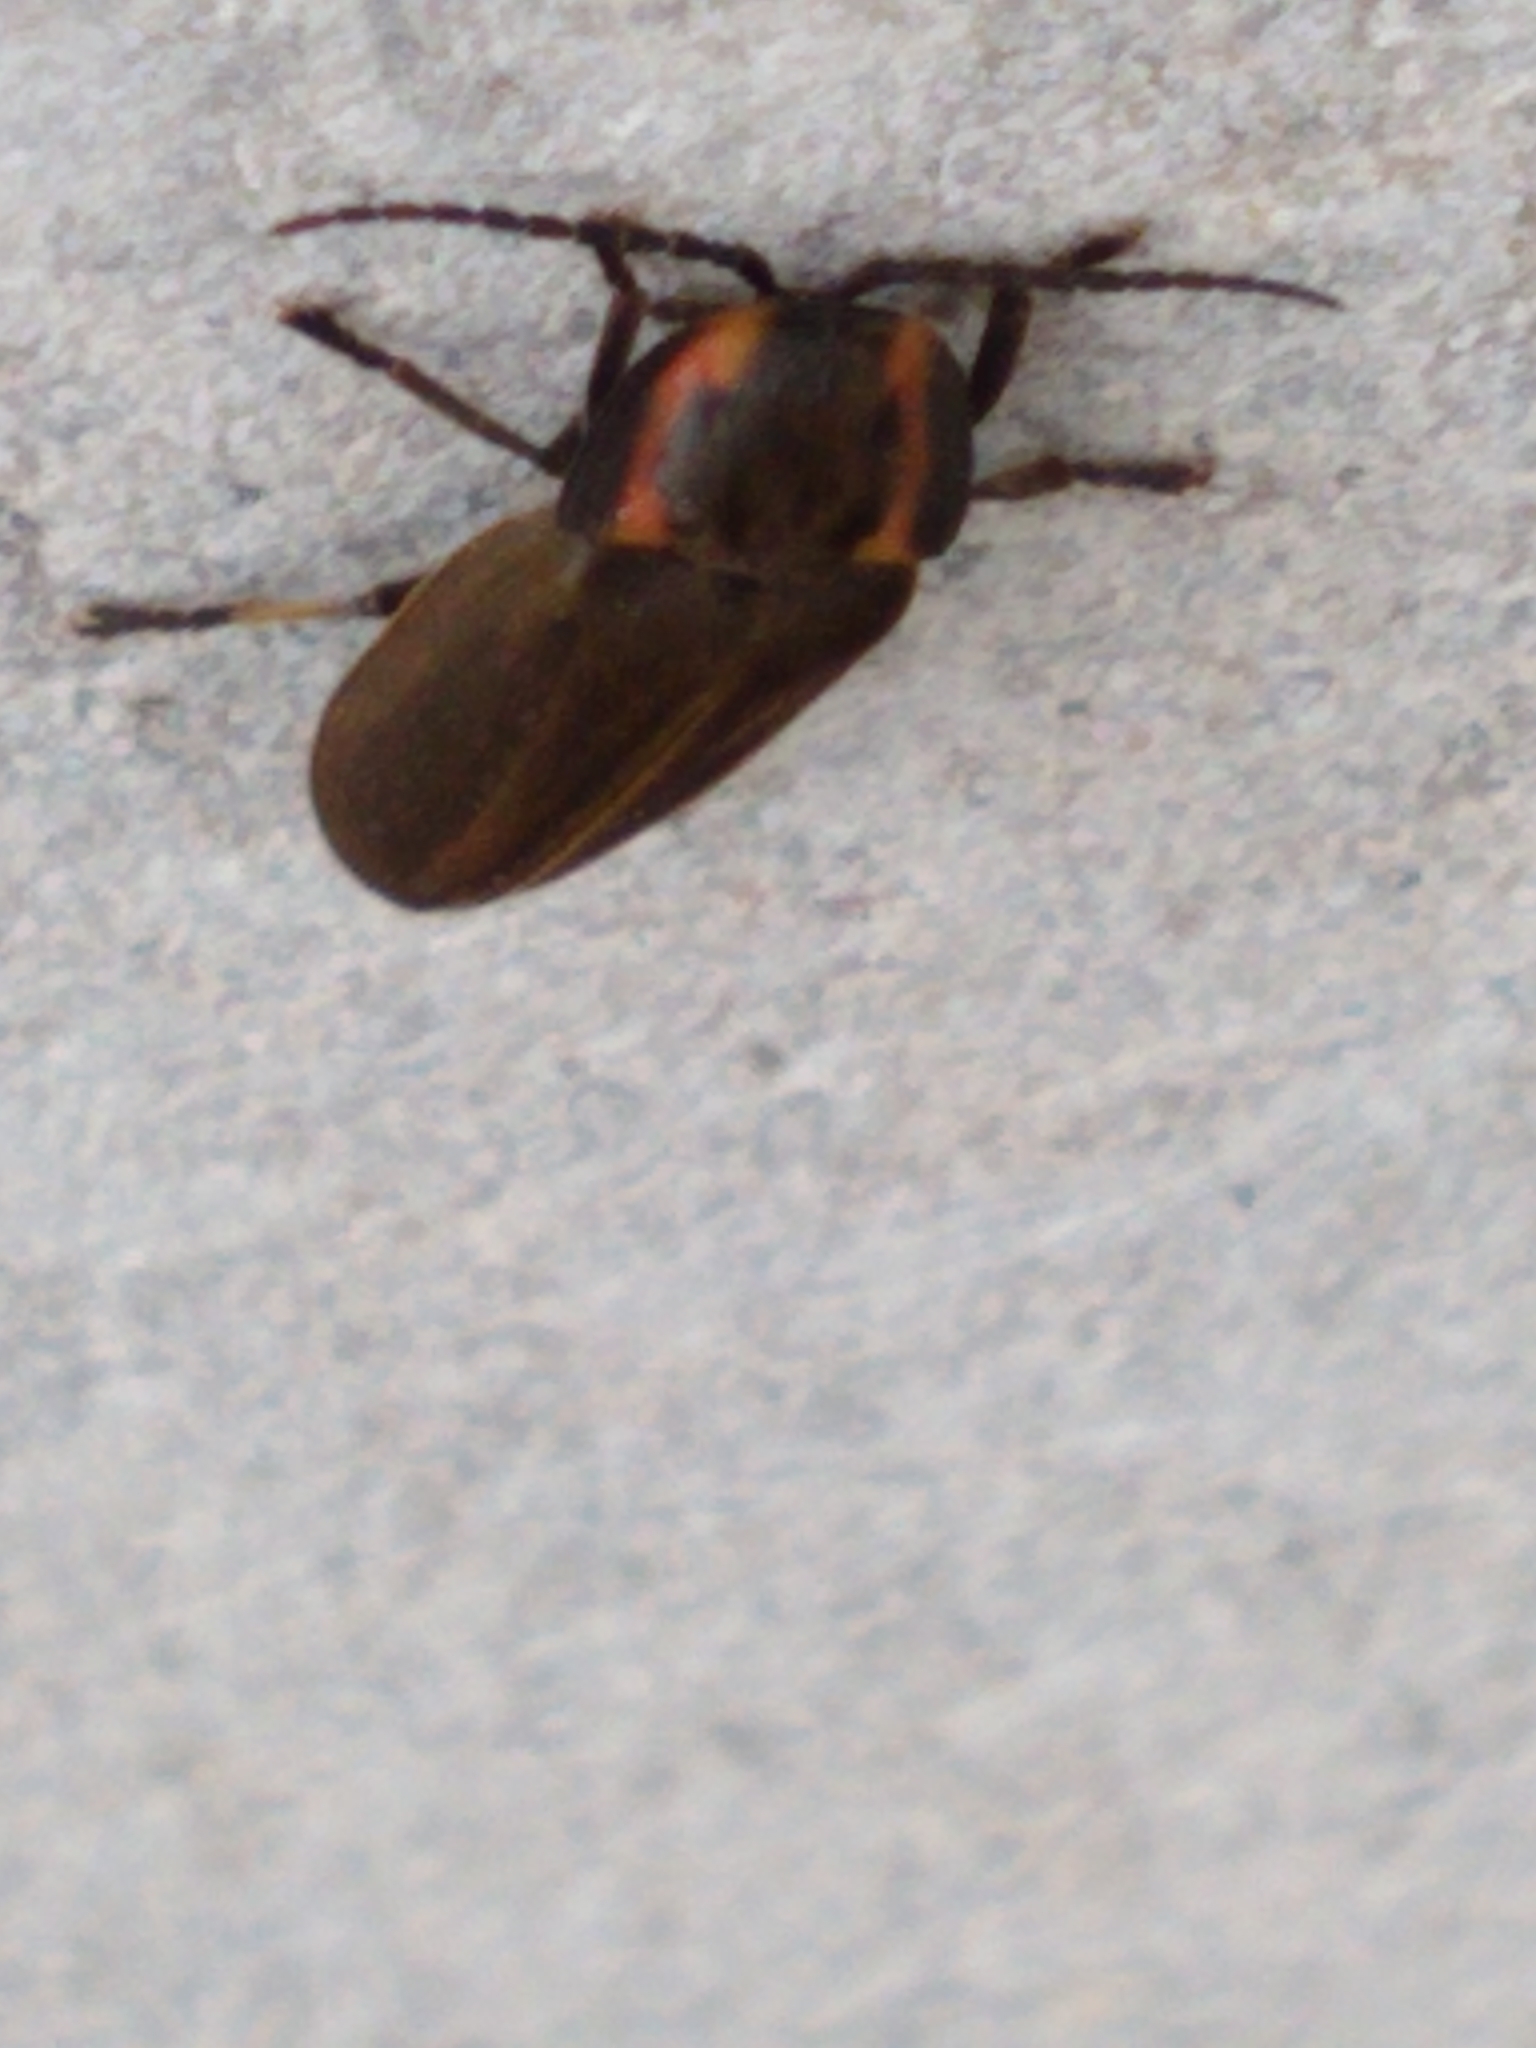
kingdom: Animalia
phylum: Arthropoda
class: Insecta
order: Coleoptera
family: Lampyridae
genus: Photinus
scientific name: Photinus corrusca
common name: Winter firefly
